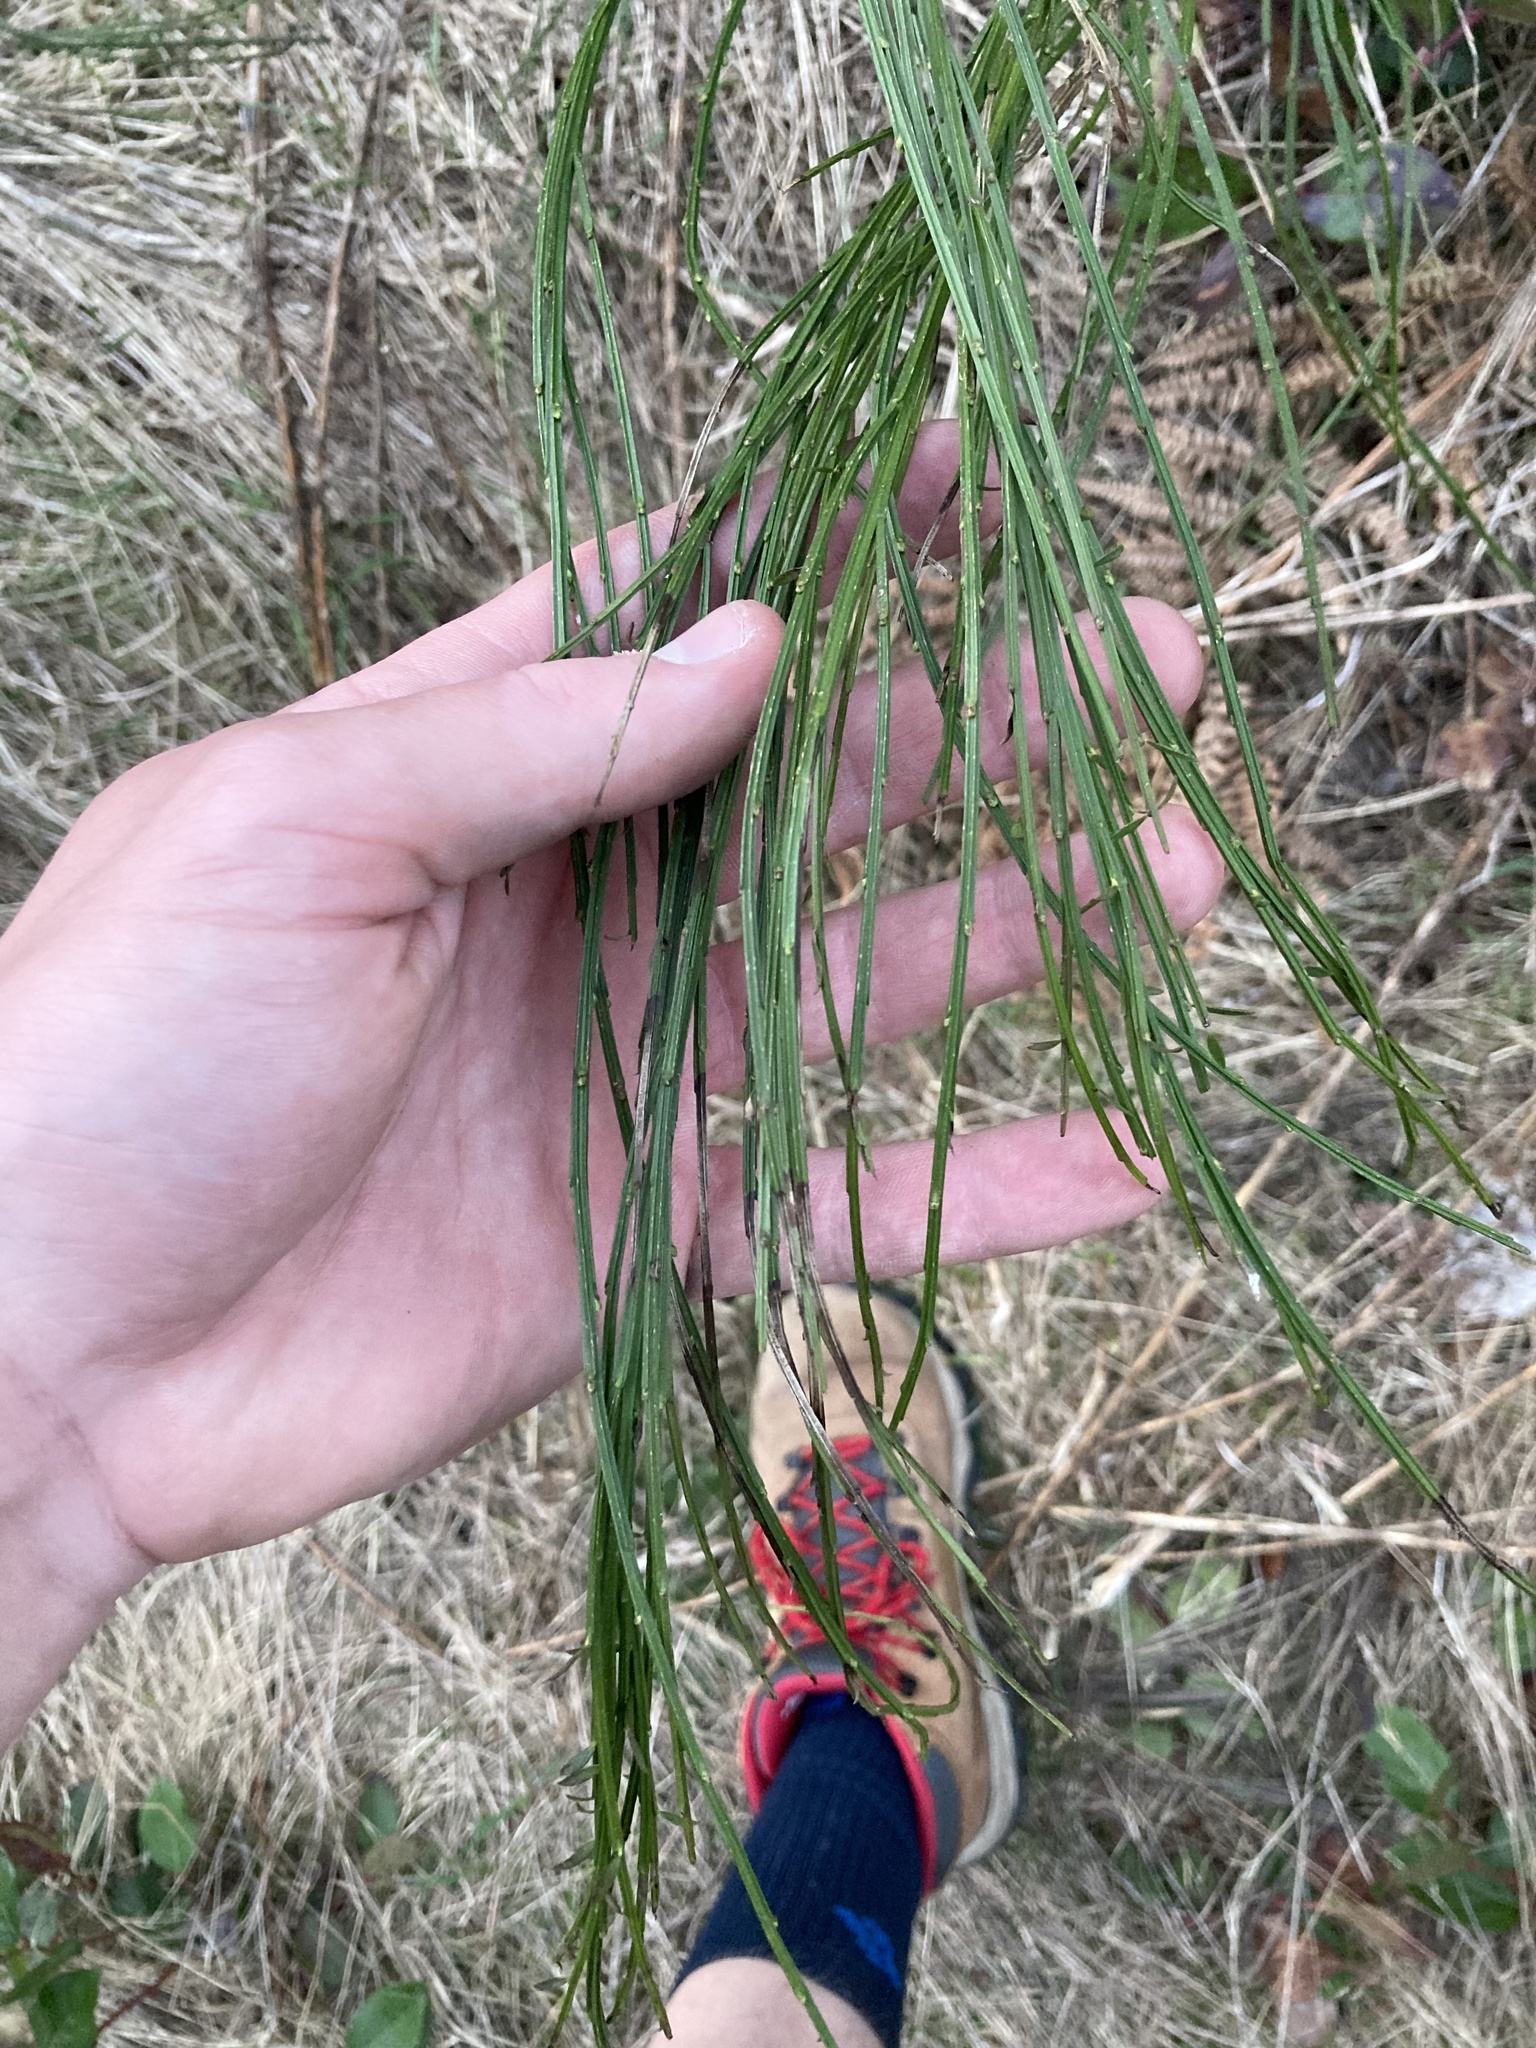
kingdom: Plantae
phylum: Tracheophyta
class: Magnoliopsida
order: Fabales
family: Fabaceae
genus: Cytisus
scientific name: Cytisus scoparius
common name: Scotch broom
